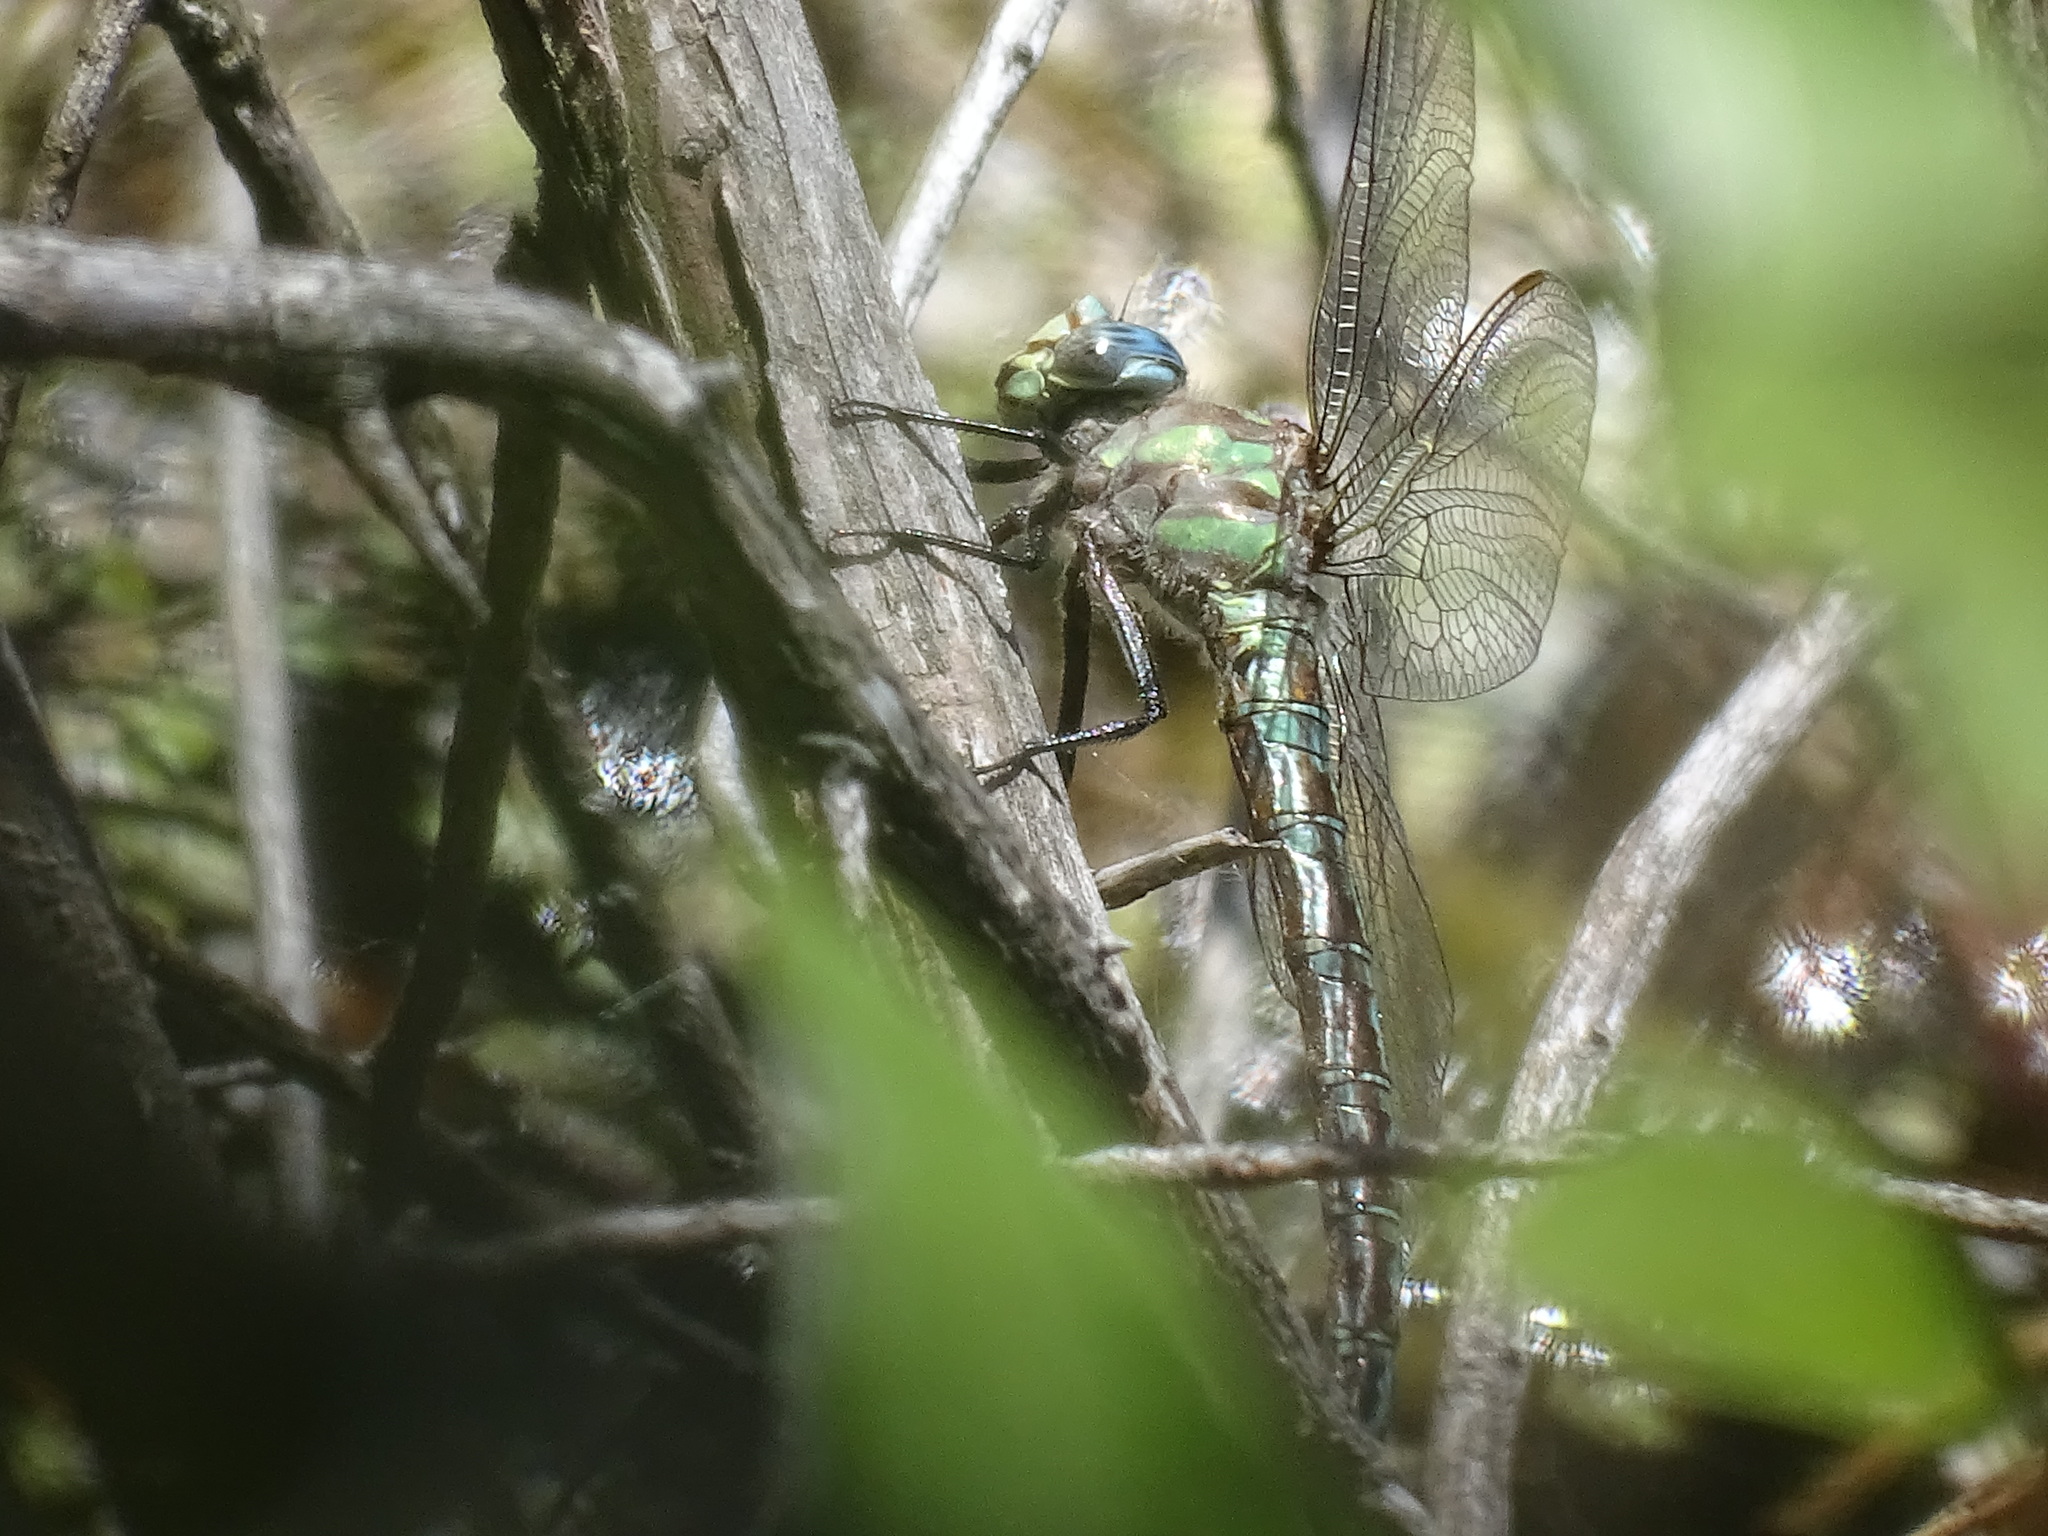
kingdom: Animalia
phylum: Arthropoda
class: Insecta
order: Odonata
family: Aeshnidae
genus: Nasiaeschna
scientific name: Nasiaeschna pentacantha
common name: Cyrano darner
